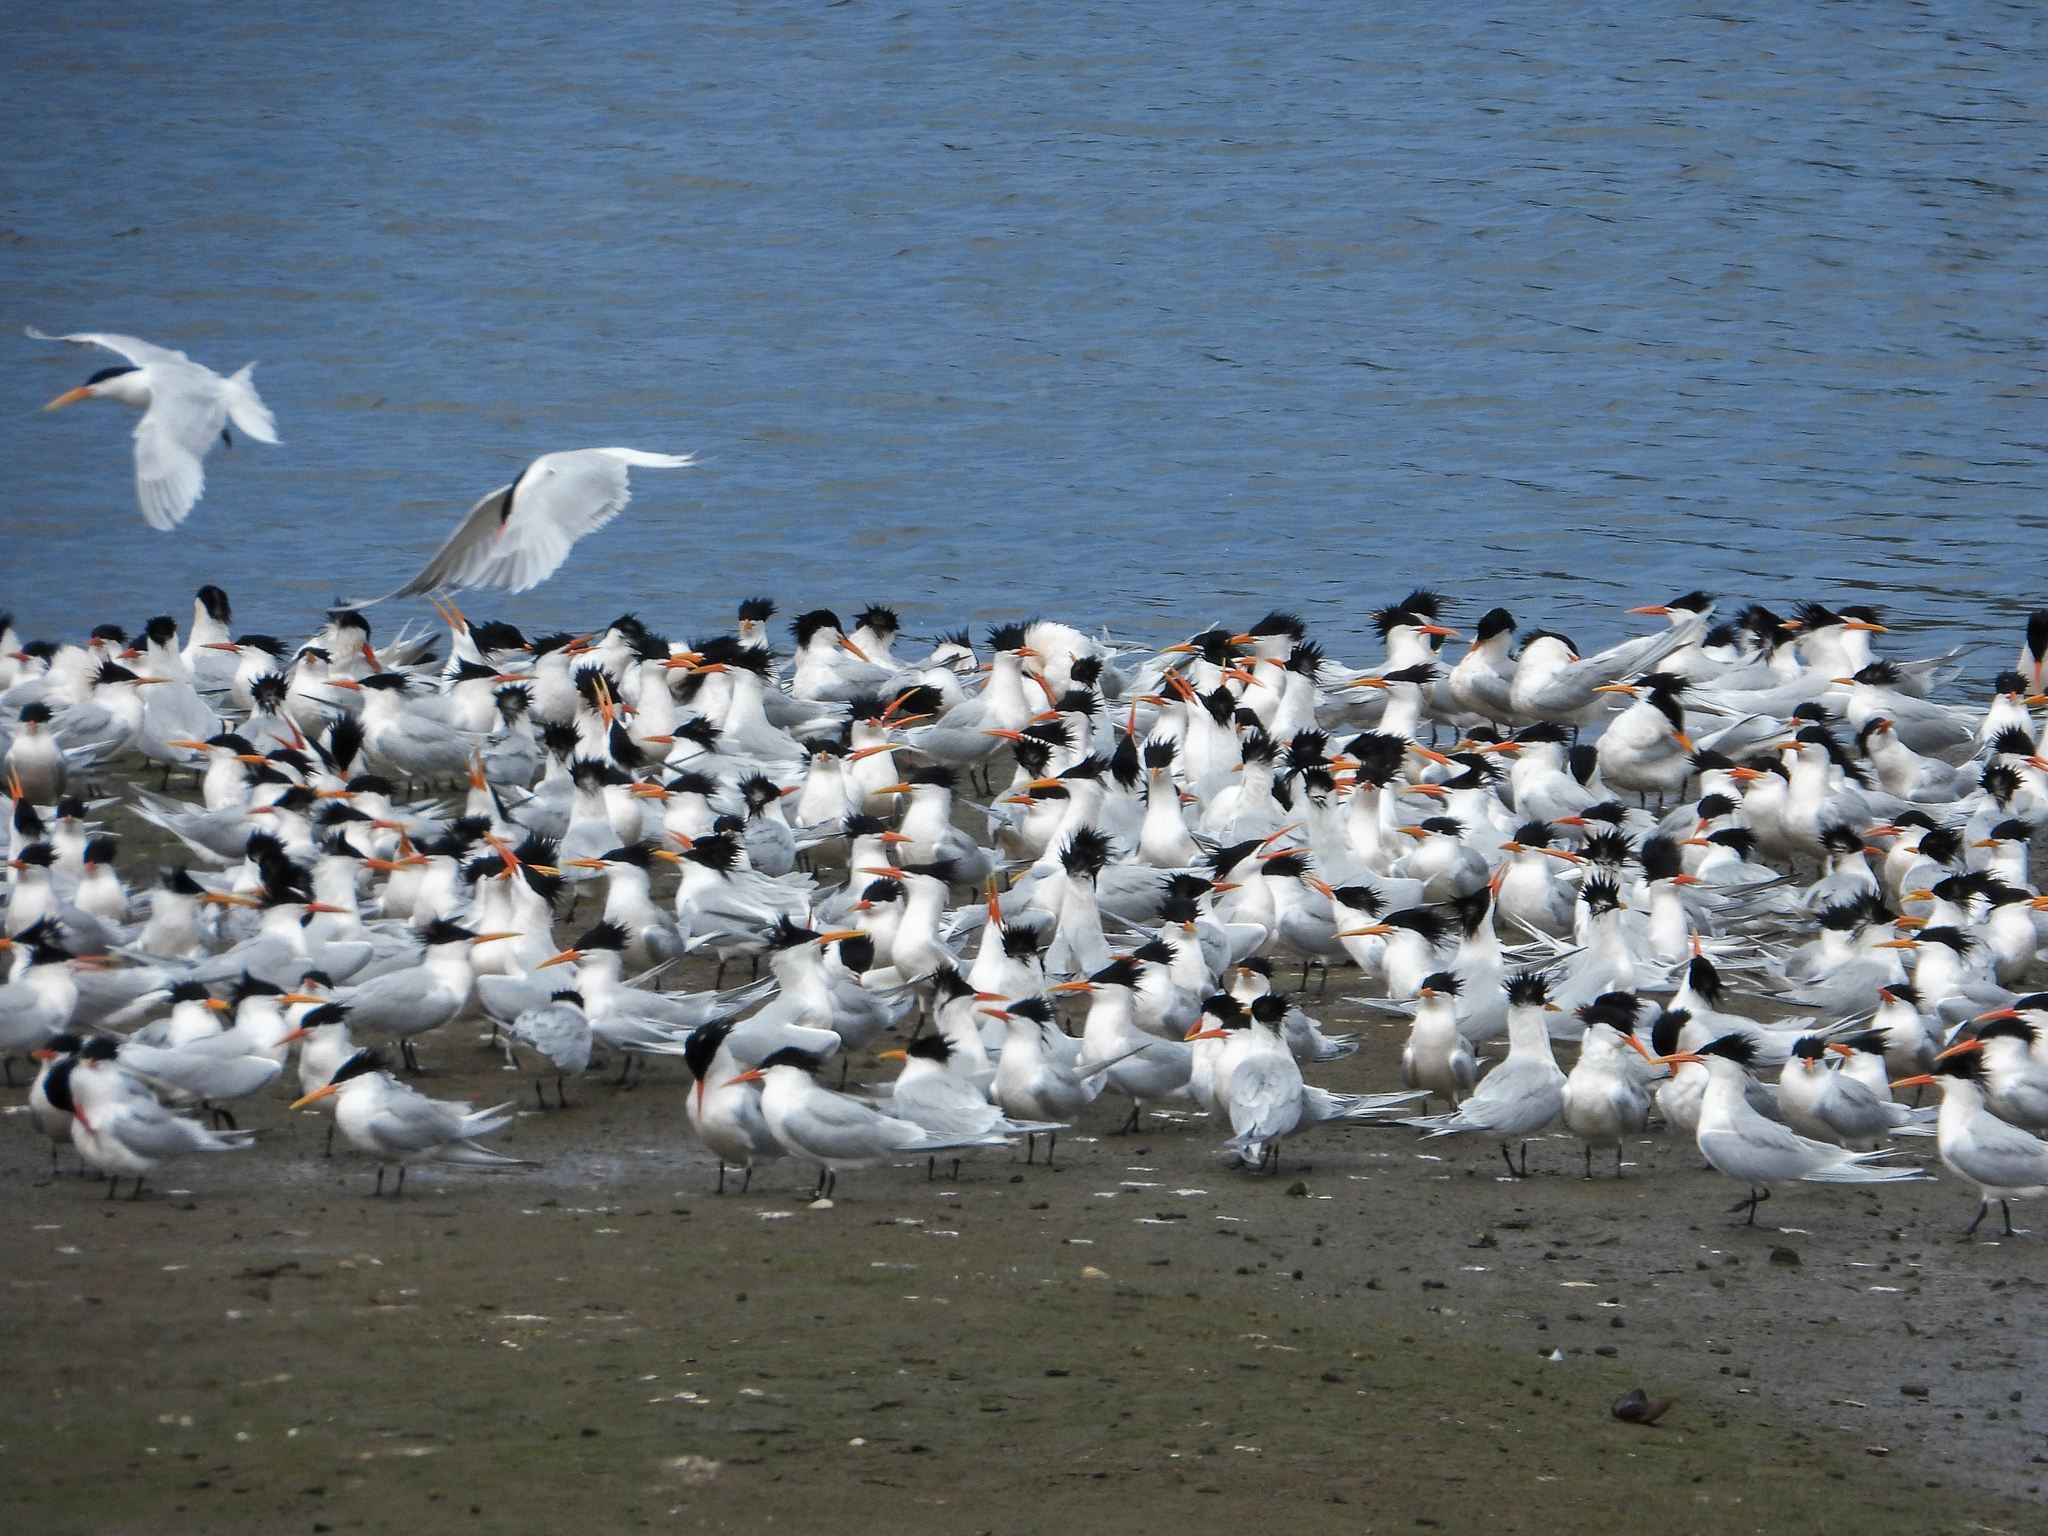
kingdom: Animalia
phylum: Chordata
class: Aves
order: Charadriiformes
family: Laridae
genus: Thalasseus
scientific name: Thalasseus elegans
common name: Elegant tern
